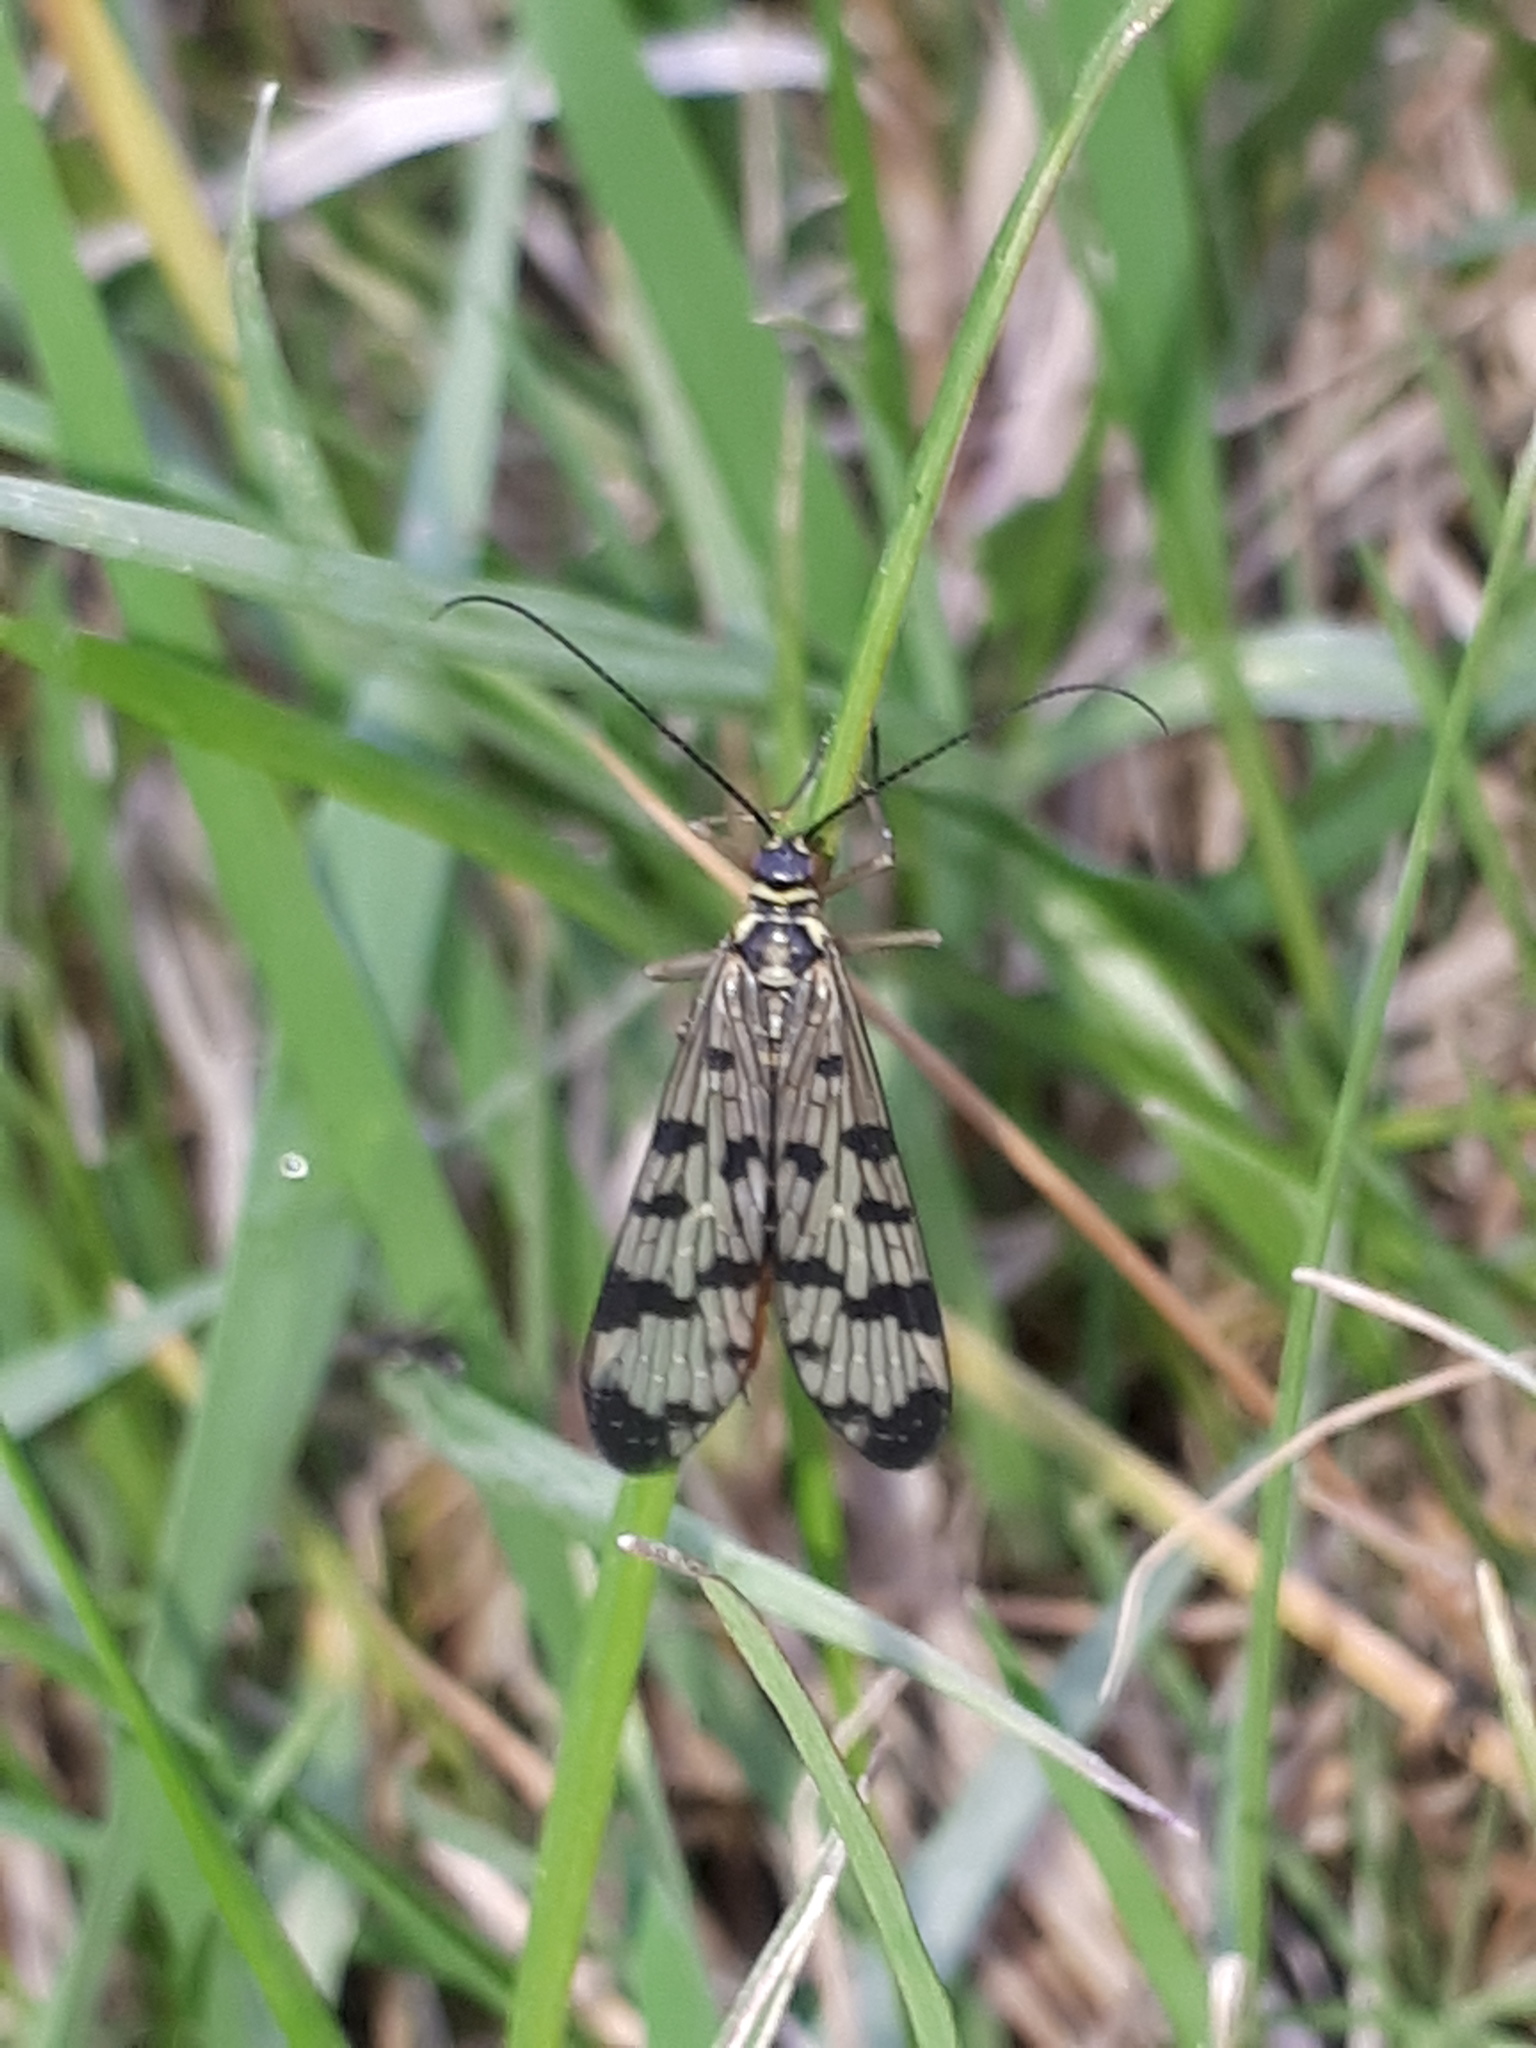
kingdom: Animalia
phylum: Arthropoda
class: Insecta
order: Mecoptera
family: Panorpidae
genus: Panorpa
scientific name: Panorpa communis
